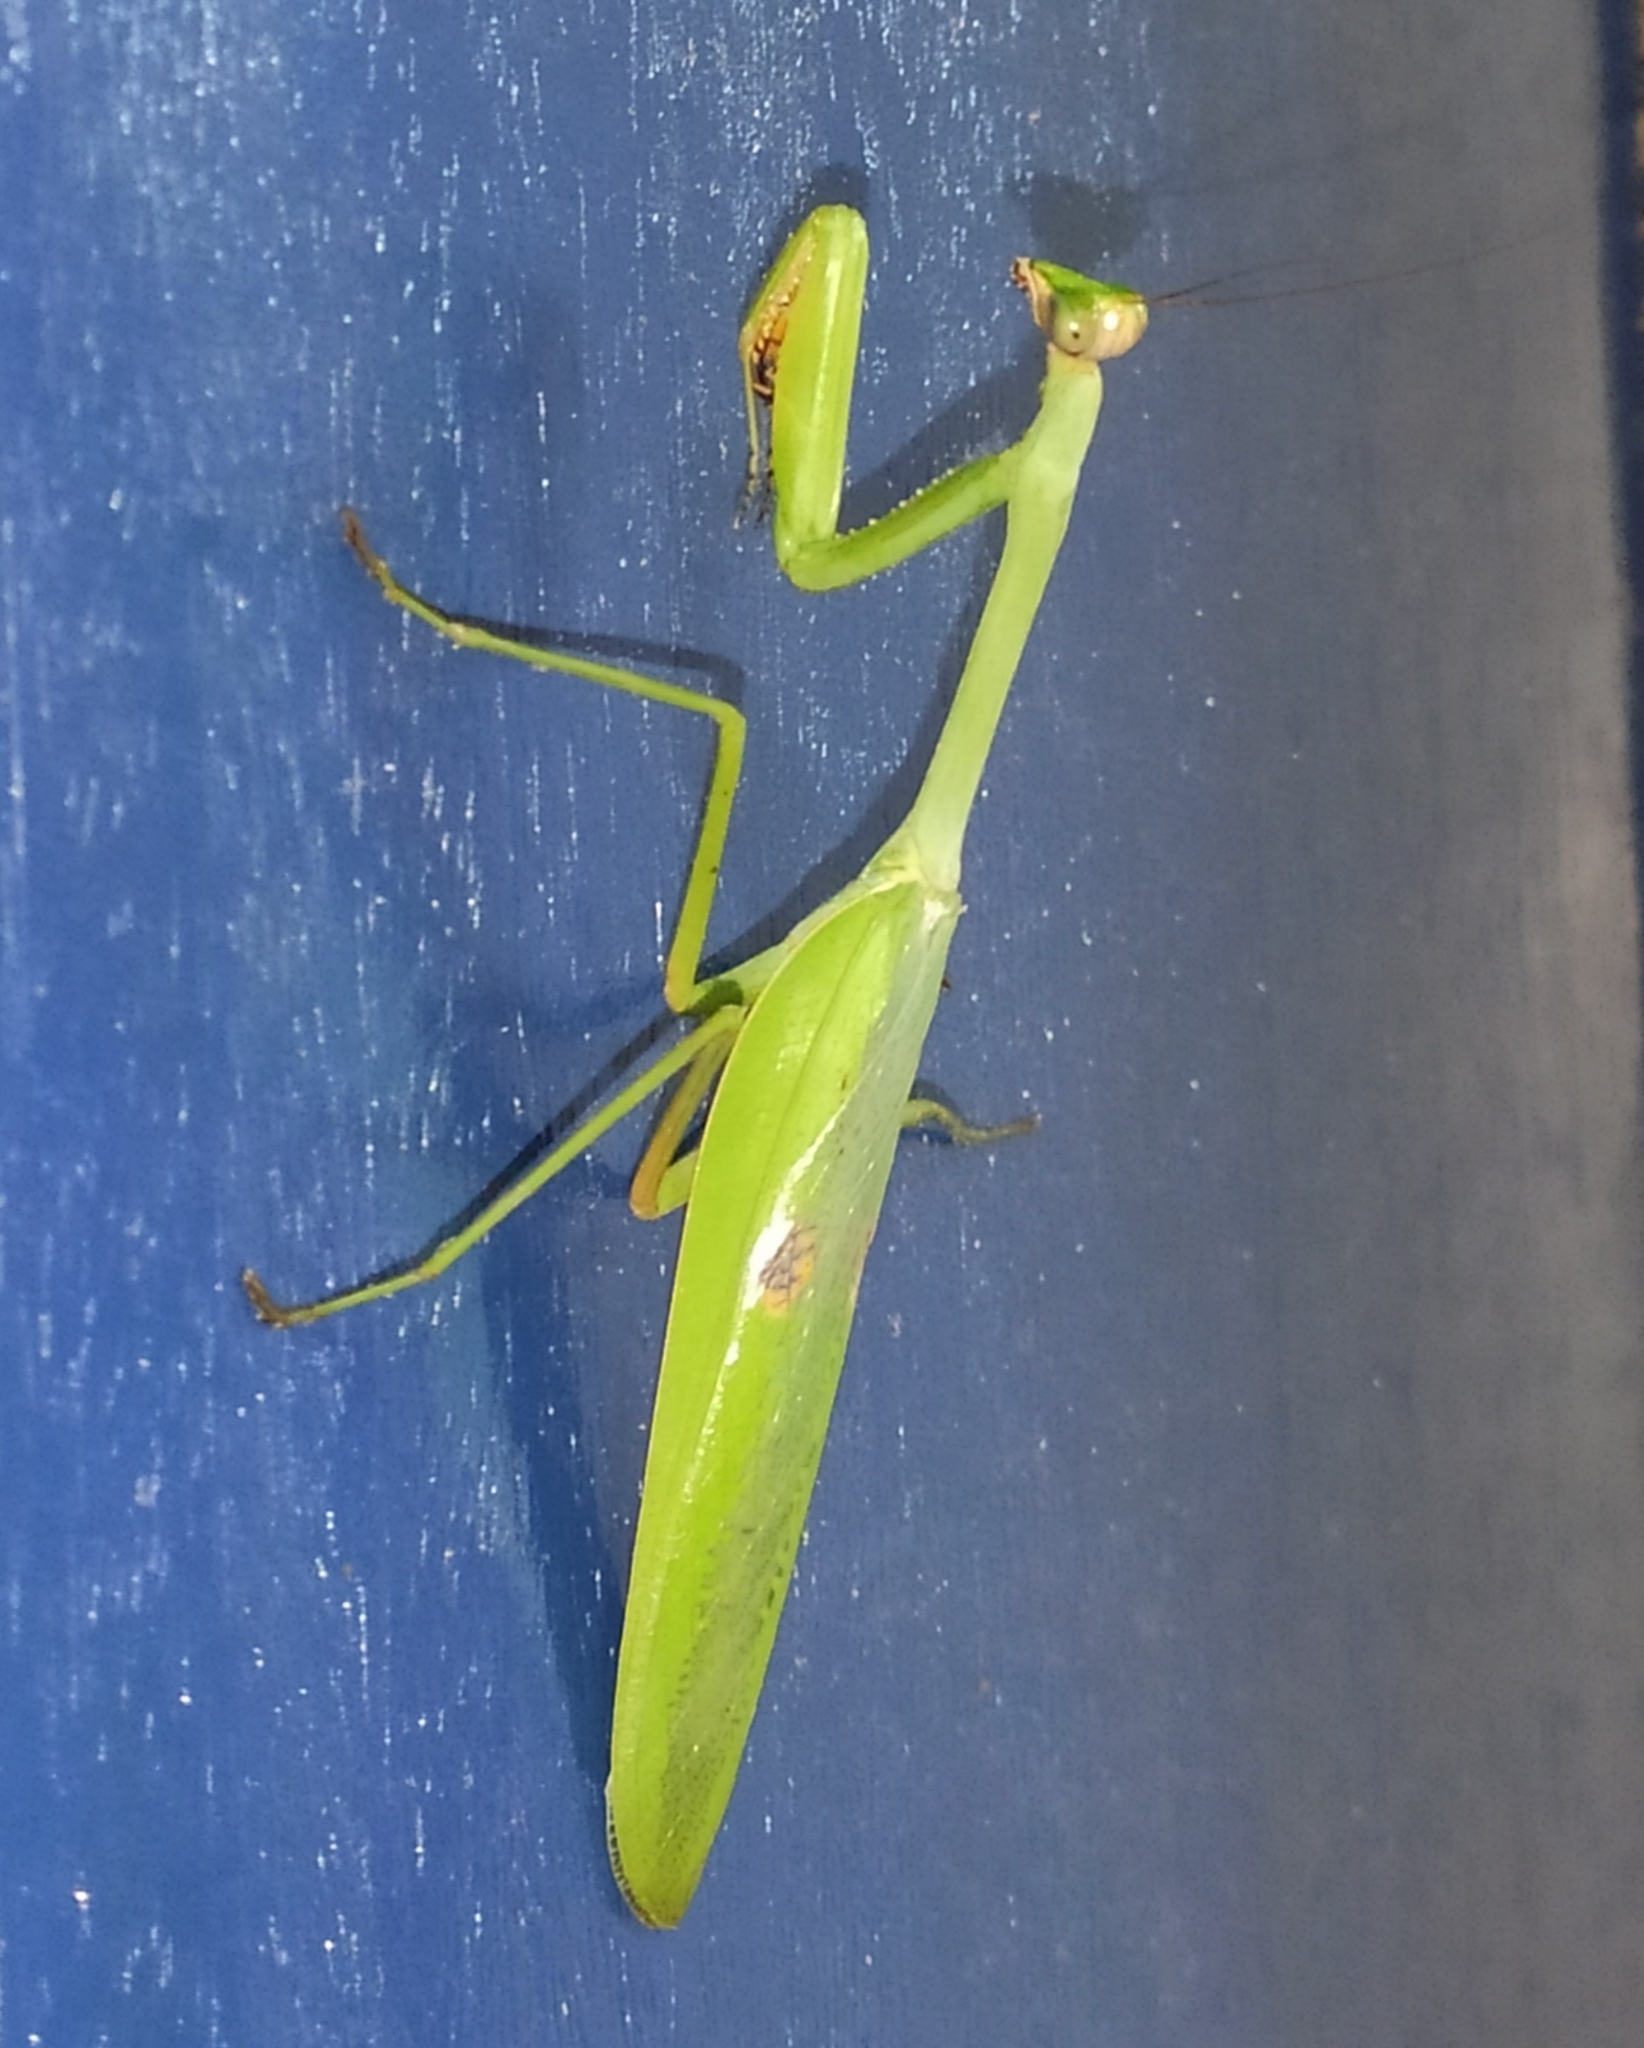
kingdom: Animalia
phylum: Arthropoda
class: Insecta
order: Mantodea
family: Mantidae
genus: Stagmatoptera
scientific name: Stagmatoptera praecaria
